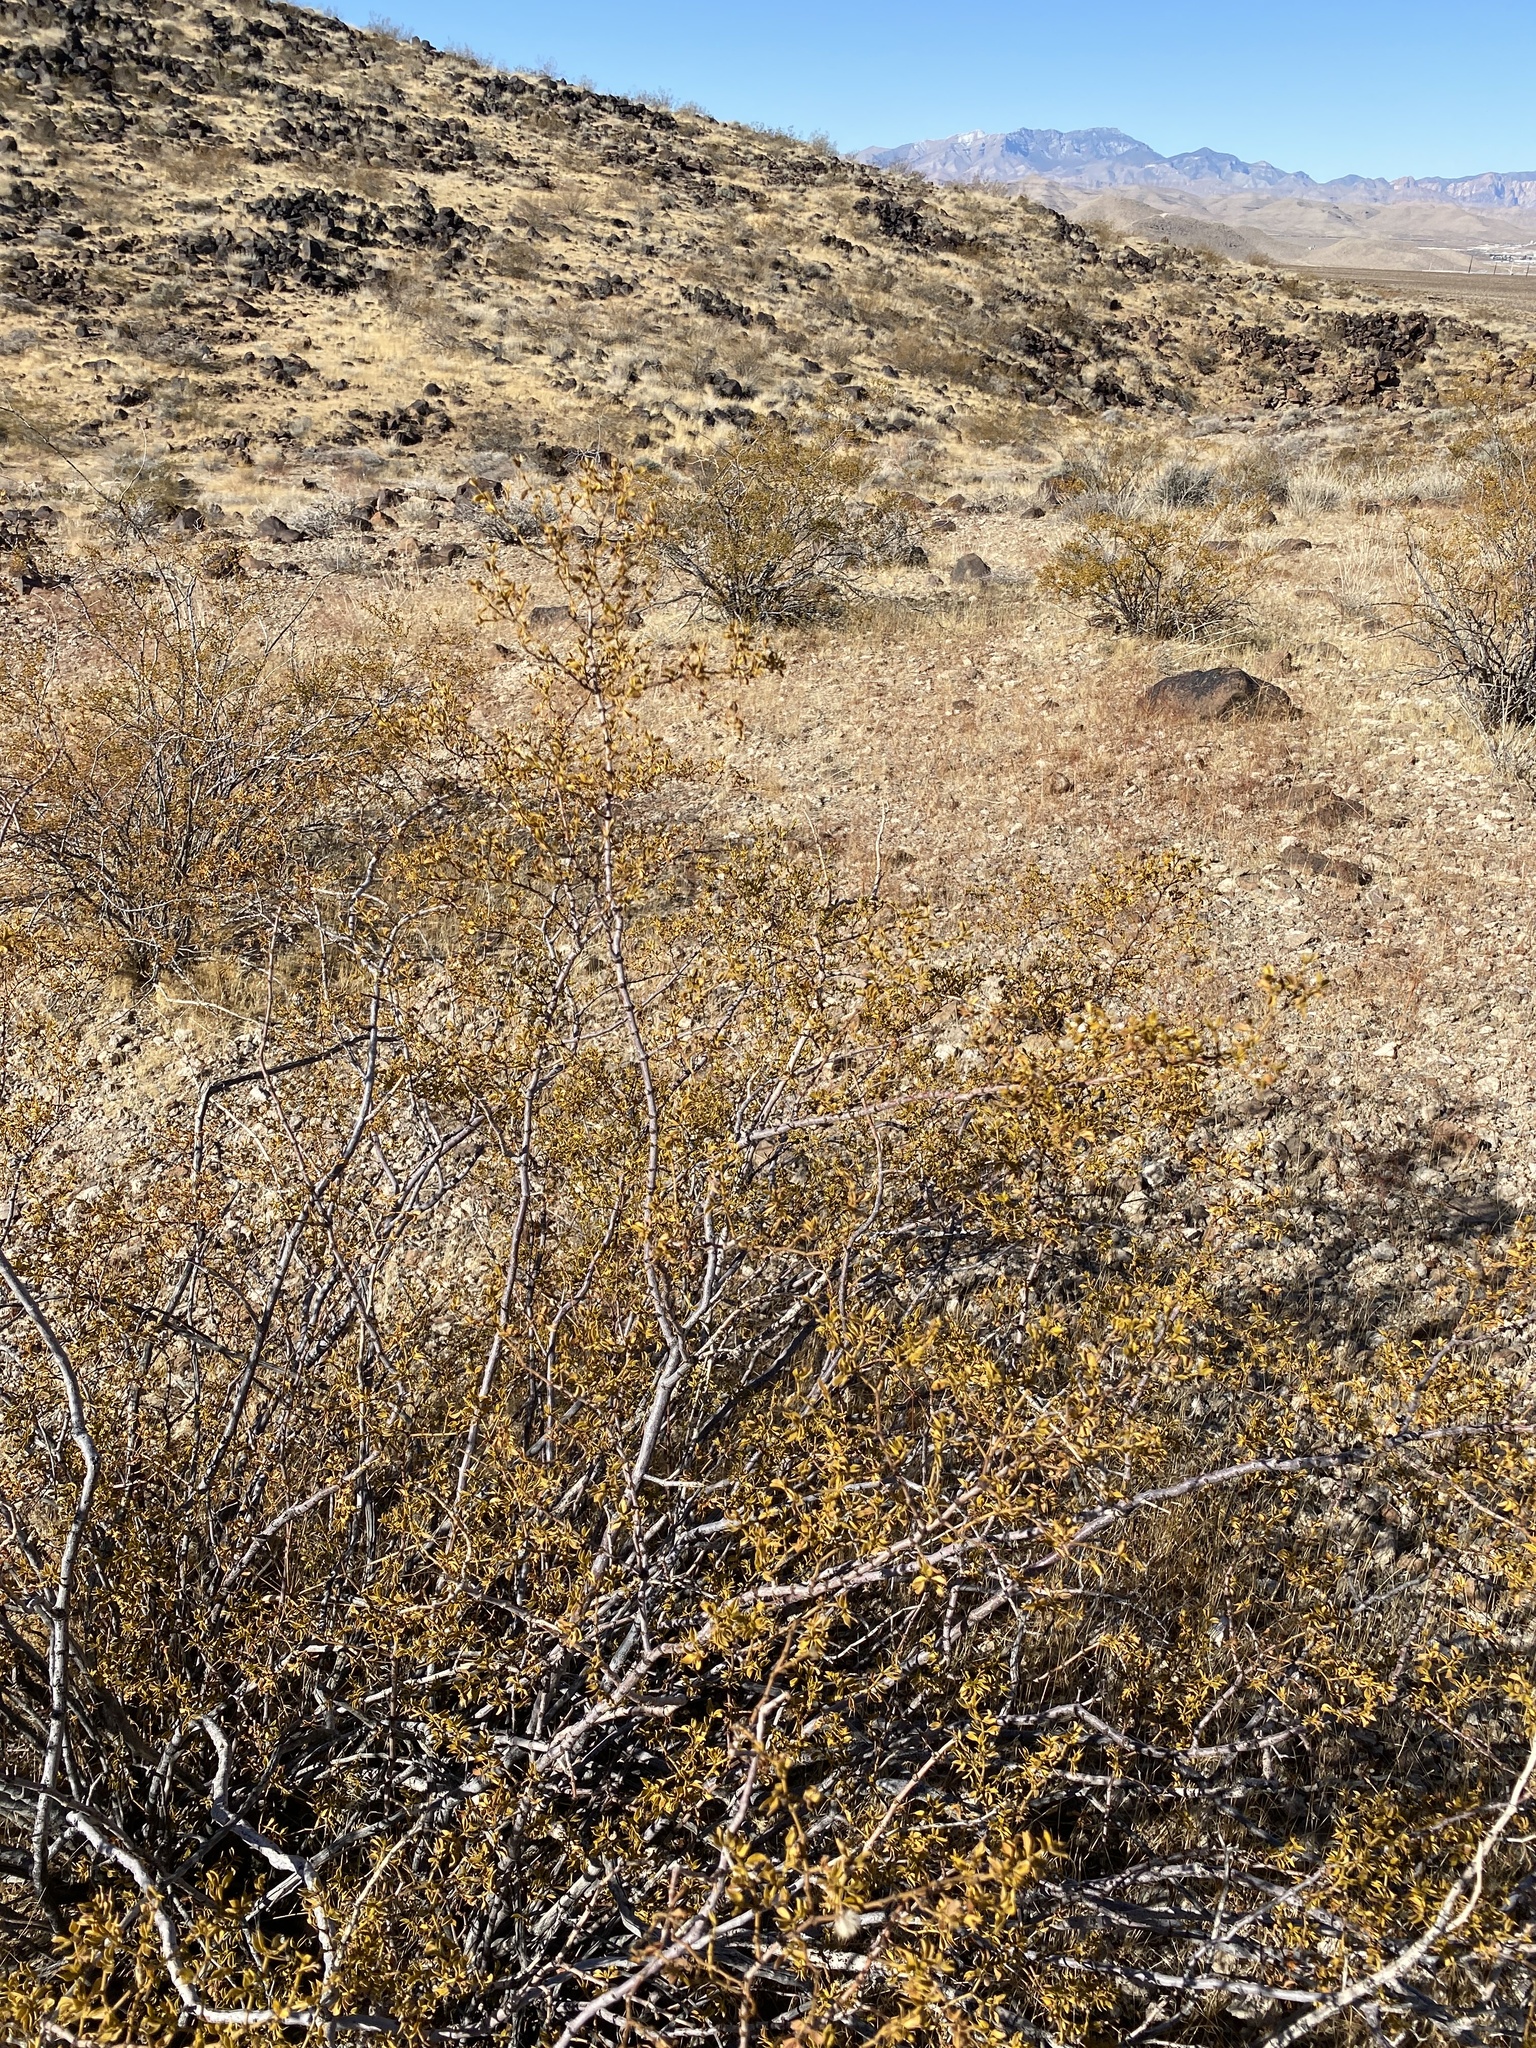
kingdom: Plantae
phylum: Tracheophyta
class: Magnoliopsida
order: Zygophyllales
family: Zygophyllaceae
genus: Larrea
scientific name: Larrea tridentata
